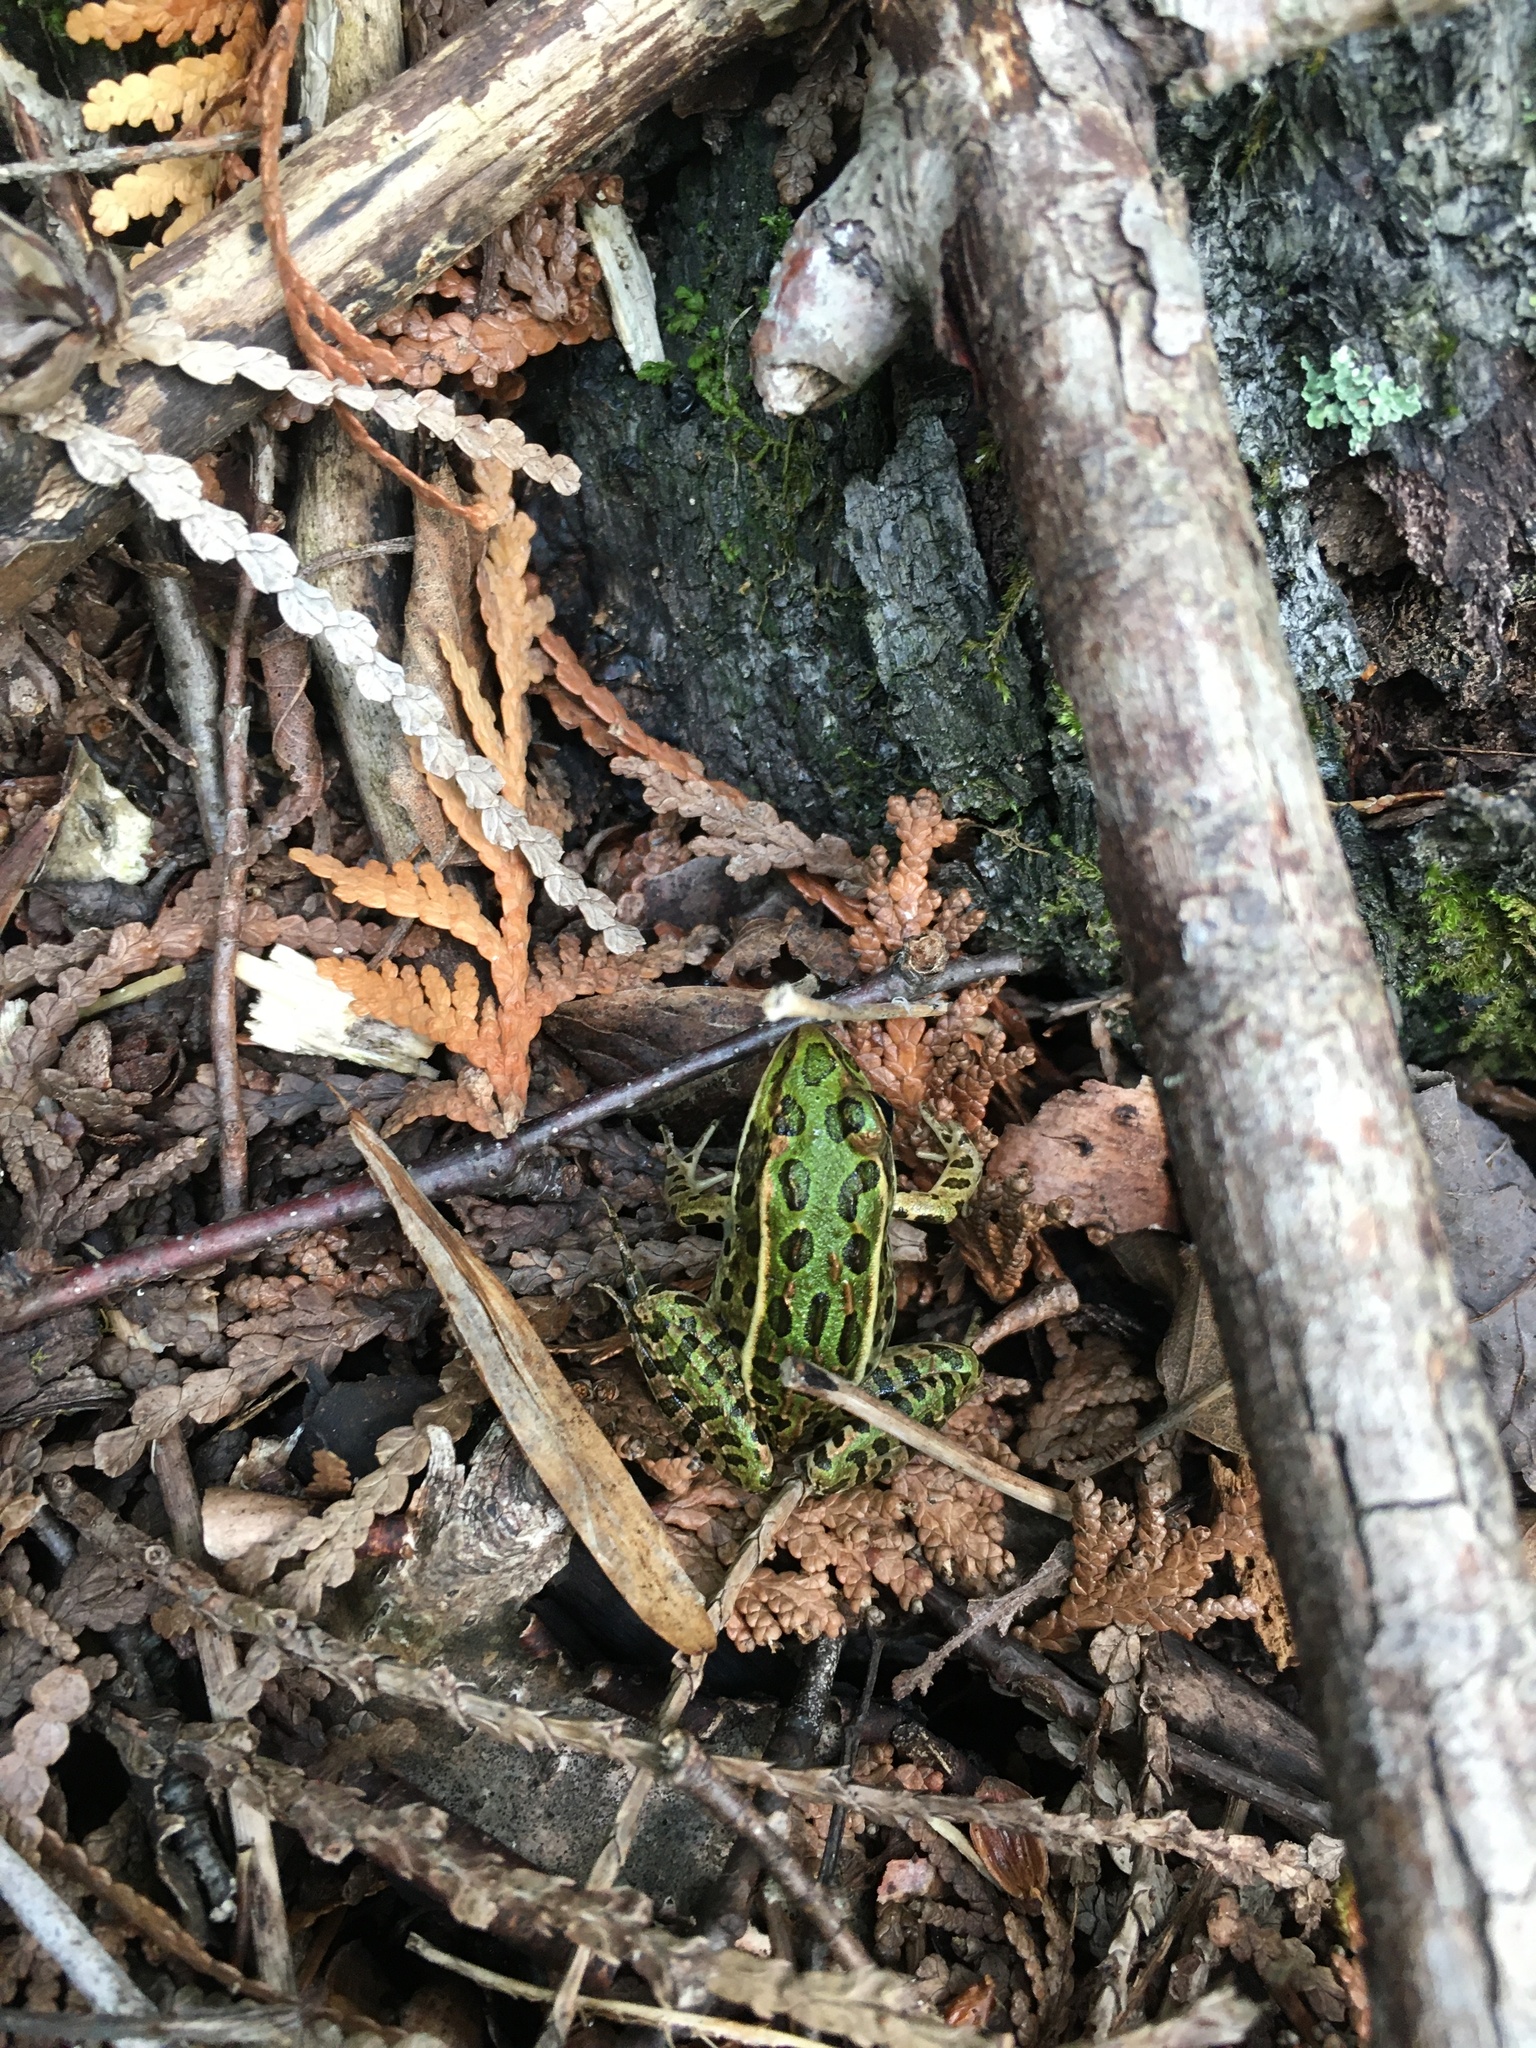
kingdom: Animalia
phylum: Chordata
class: Amphibia
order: Anura
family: Ranidae
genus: Lithobates
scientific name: Lithobates pipiens
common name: Northern leopard frog
